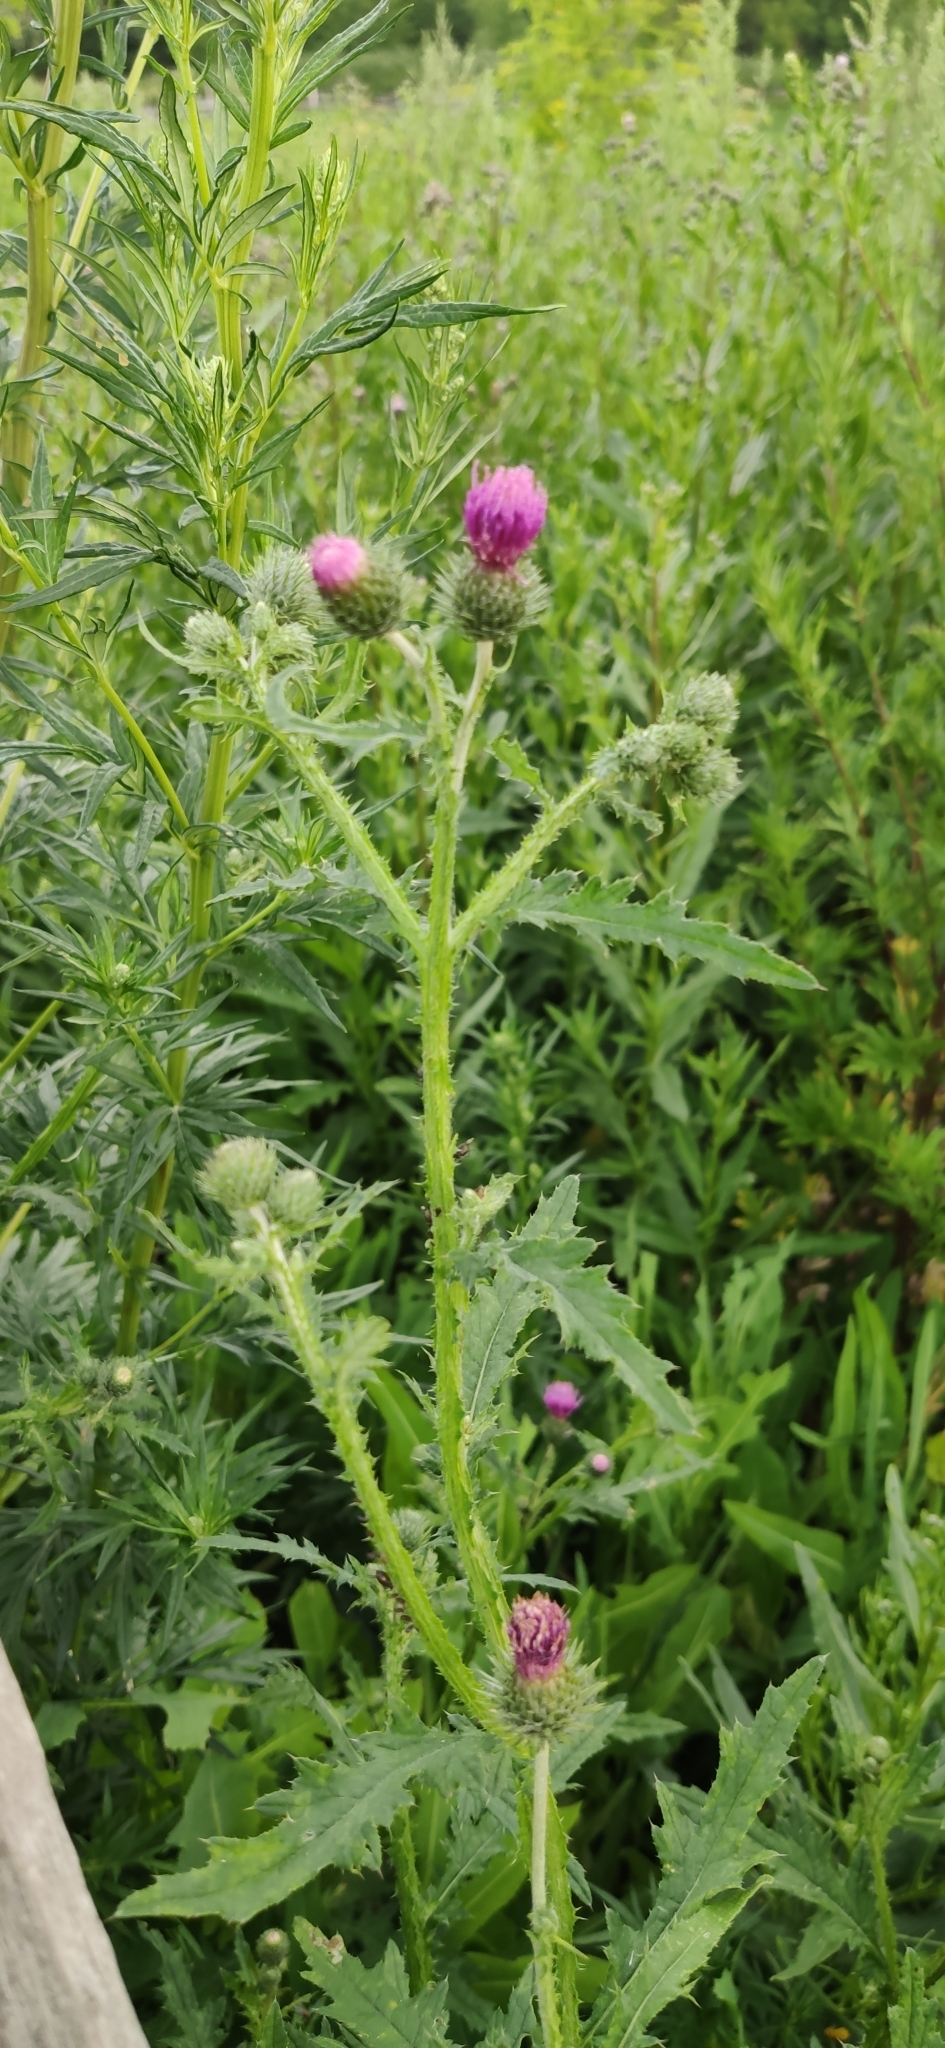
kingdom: Plantae
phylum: Tracheophyta
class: Magnoliopsida
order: Asterales
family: Asteraceae
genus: Carduus
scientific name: Carduus crispus
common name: Welted thistle
